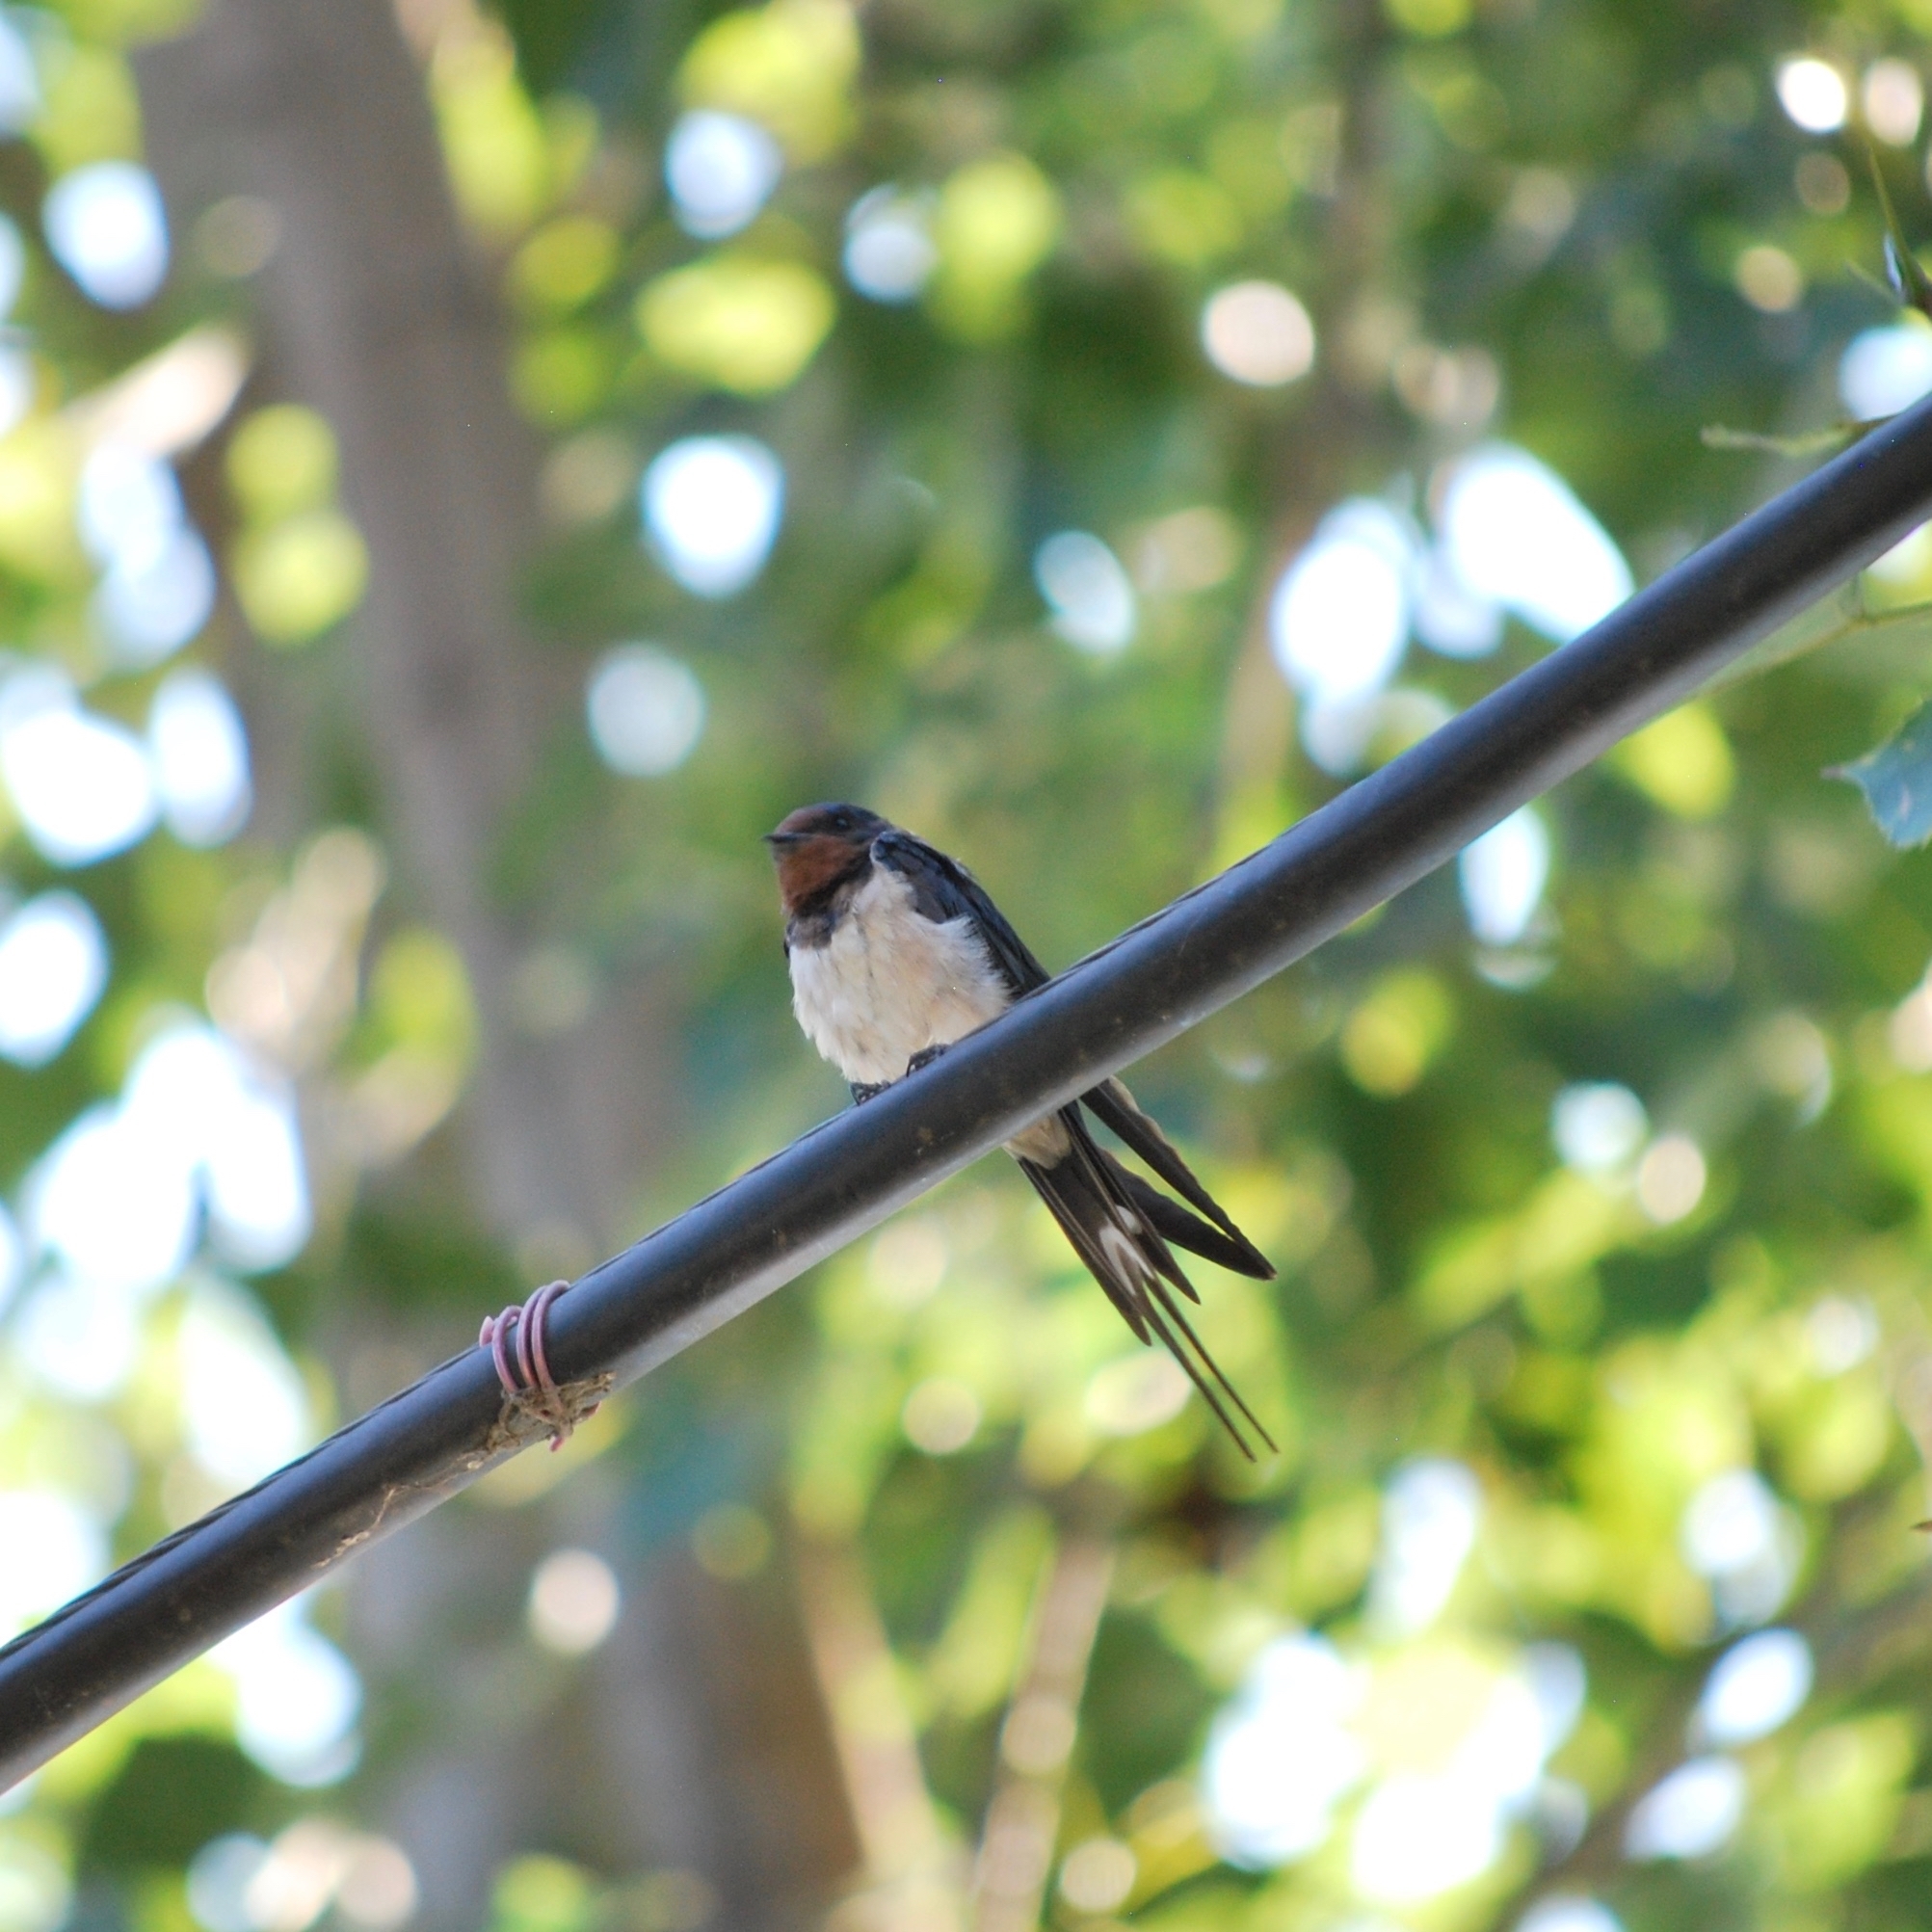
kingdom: Animalia
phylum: Chordata
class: Aves
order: Passeriformes
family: Hirundinidae
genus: Hirundo
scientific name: Hirundo rustica
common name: Barn swallow
